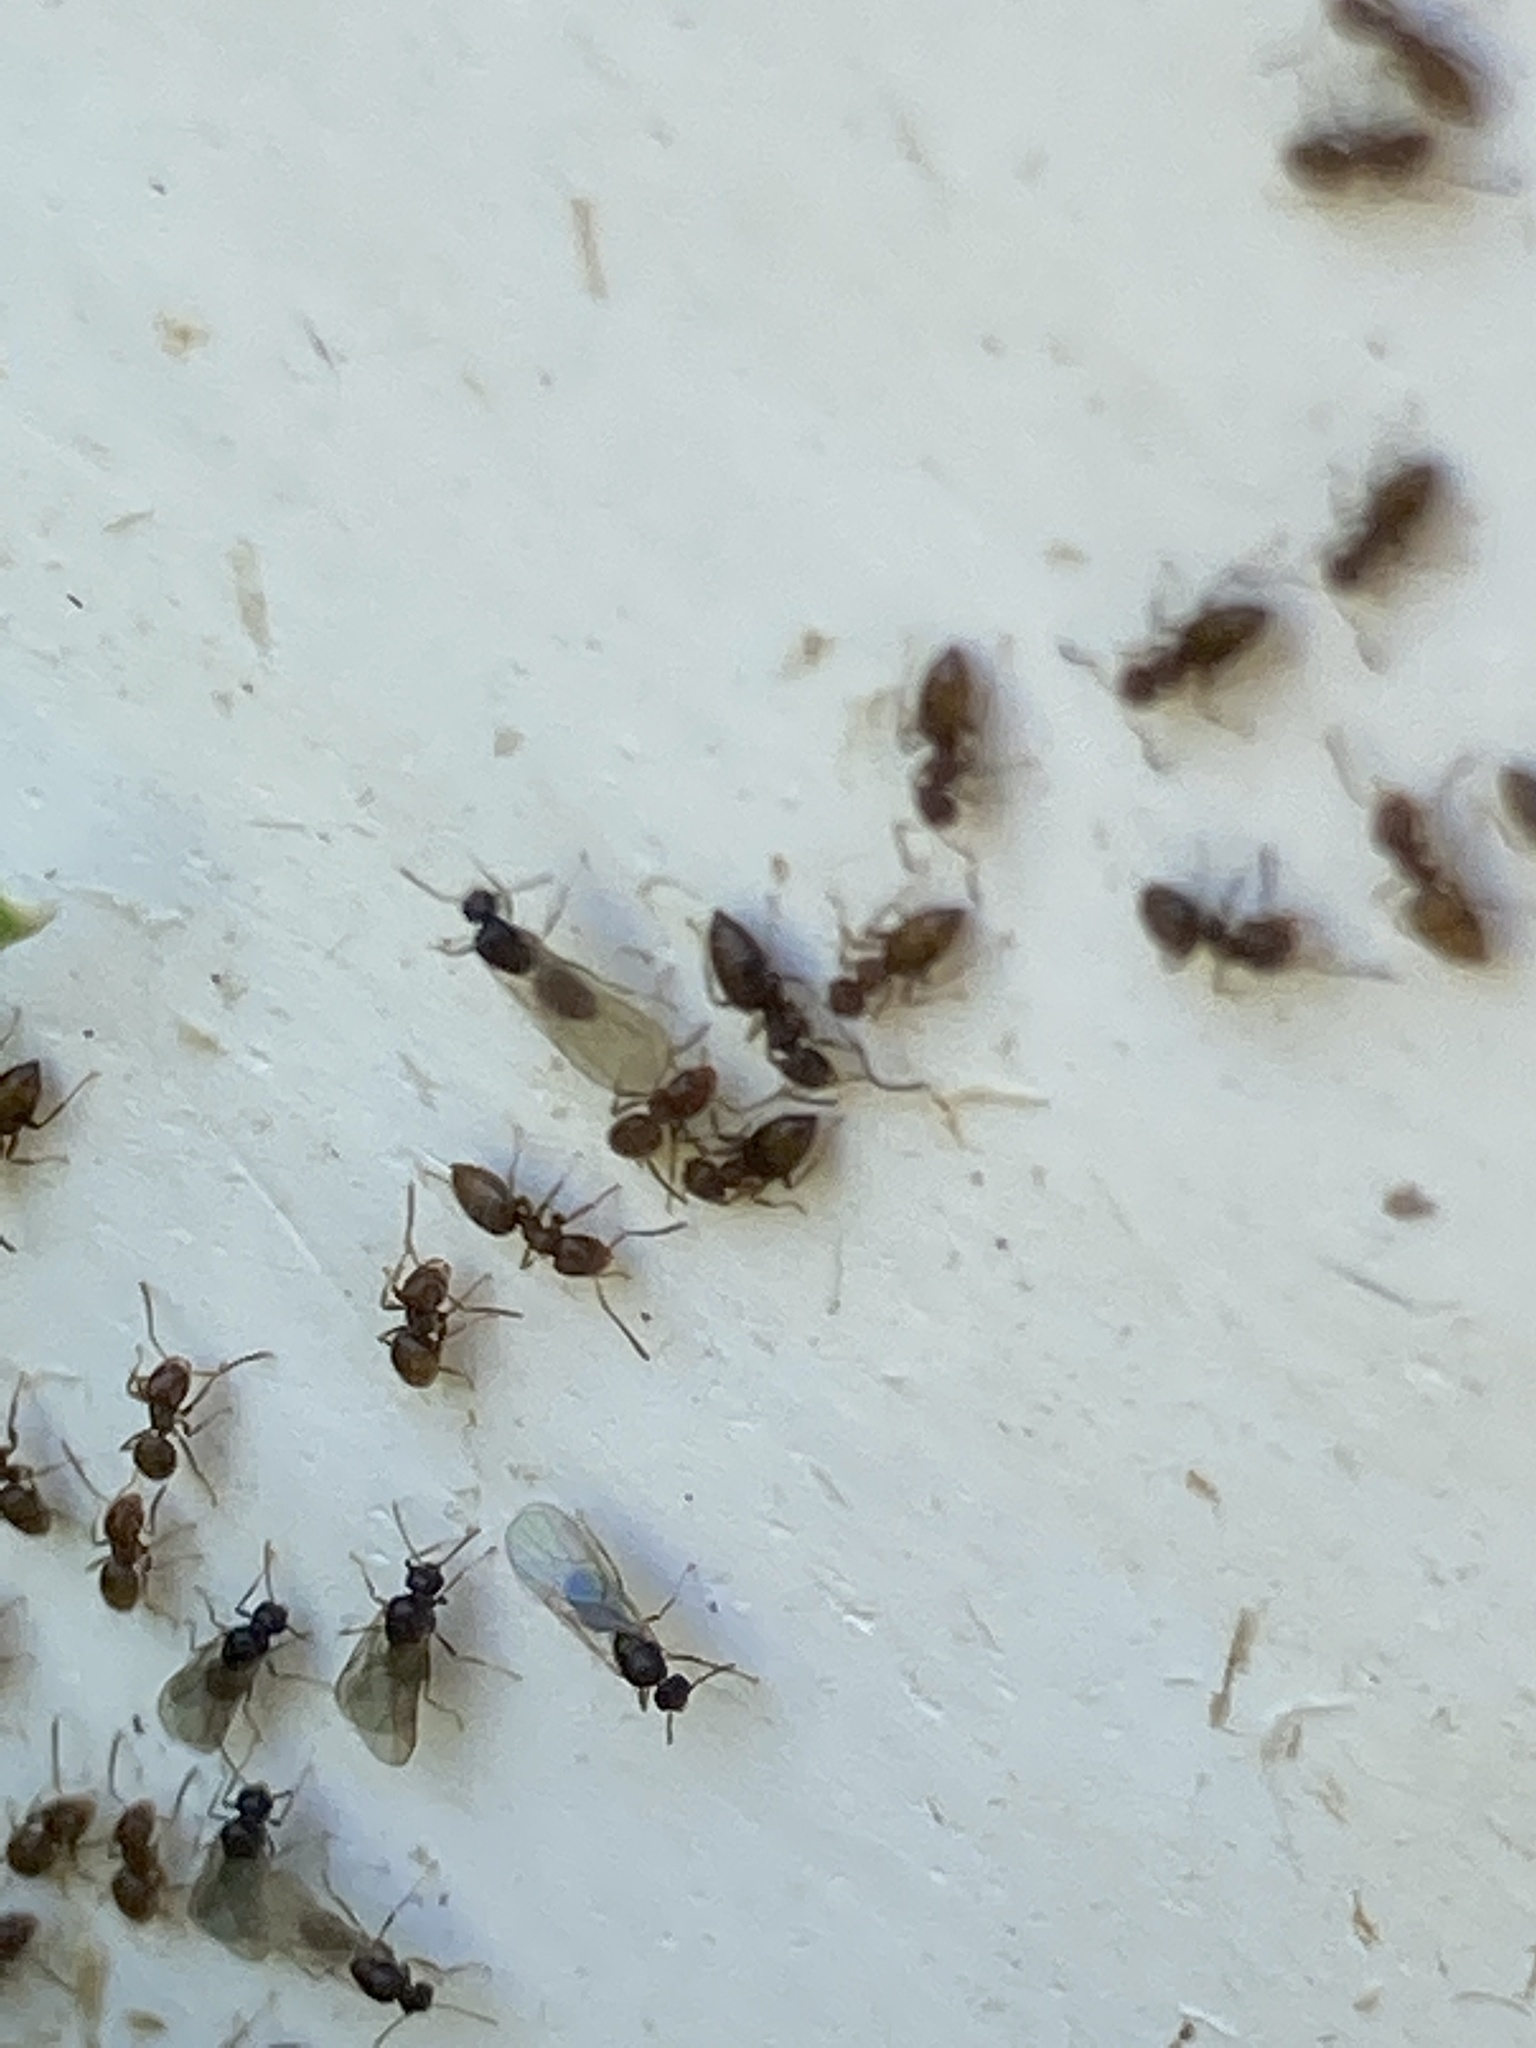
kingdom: Animalia
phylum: Arthropoda
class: Insecta
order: Hymenoptera
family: Formicidae
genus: Brachymyrmex
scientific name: Brachymyrmex obscurior
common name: Obscure rover ant
